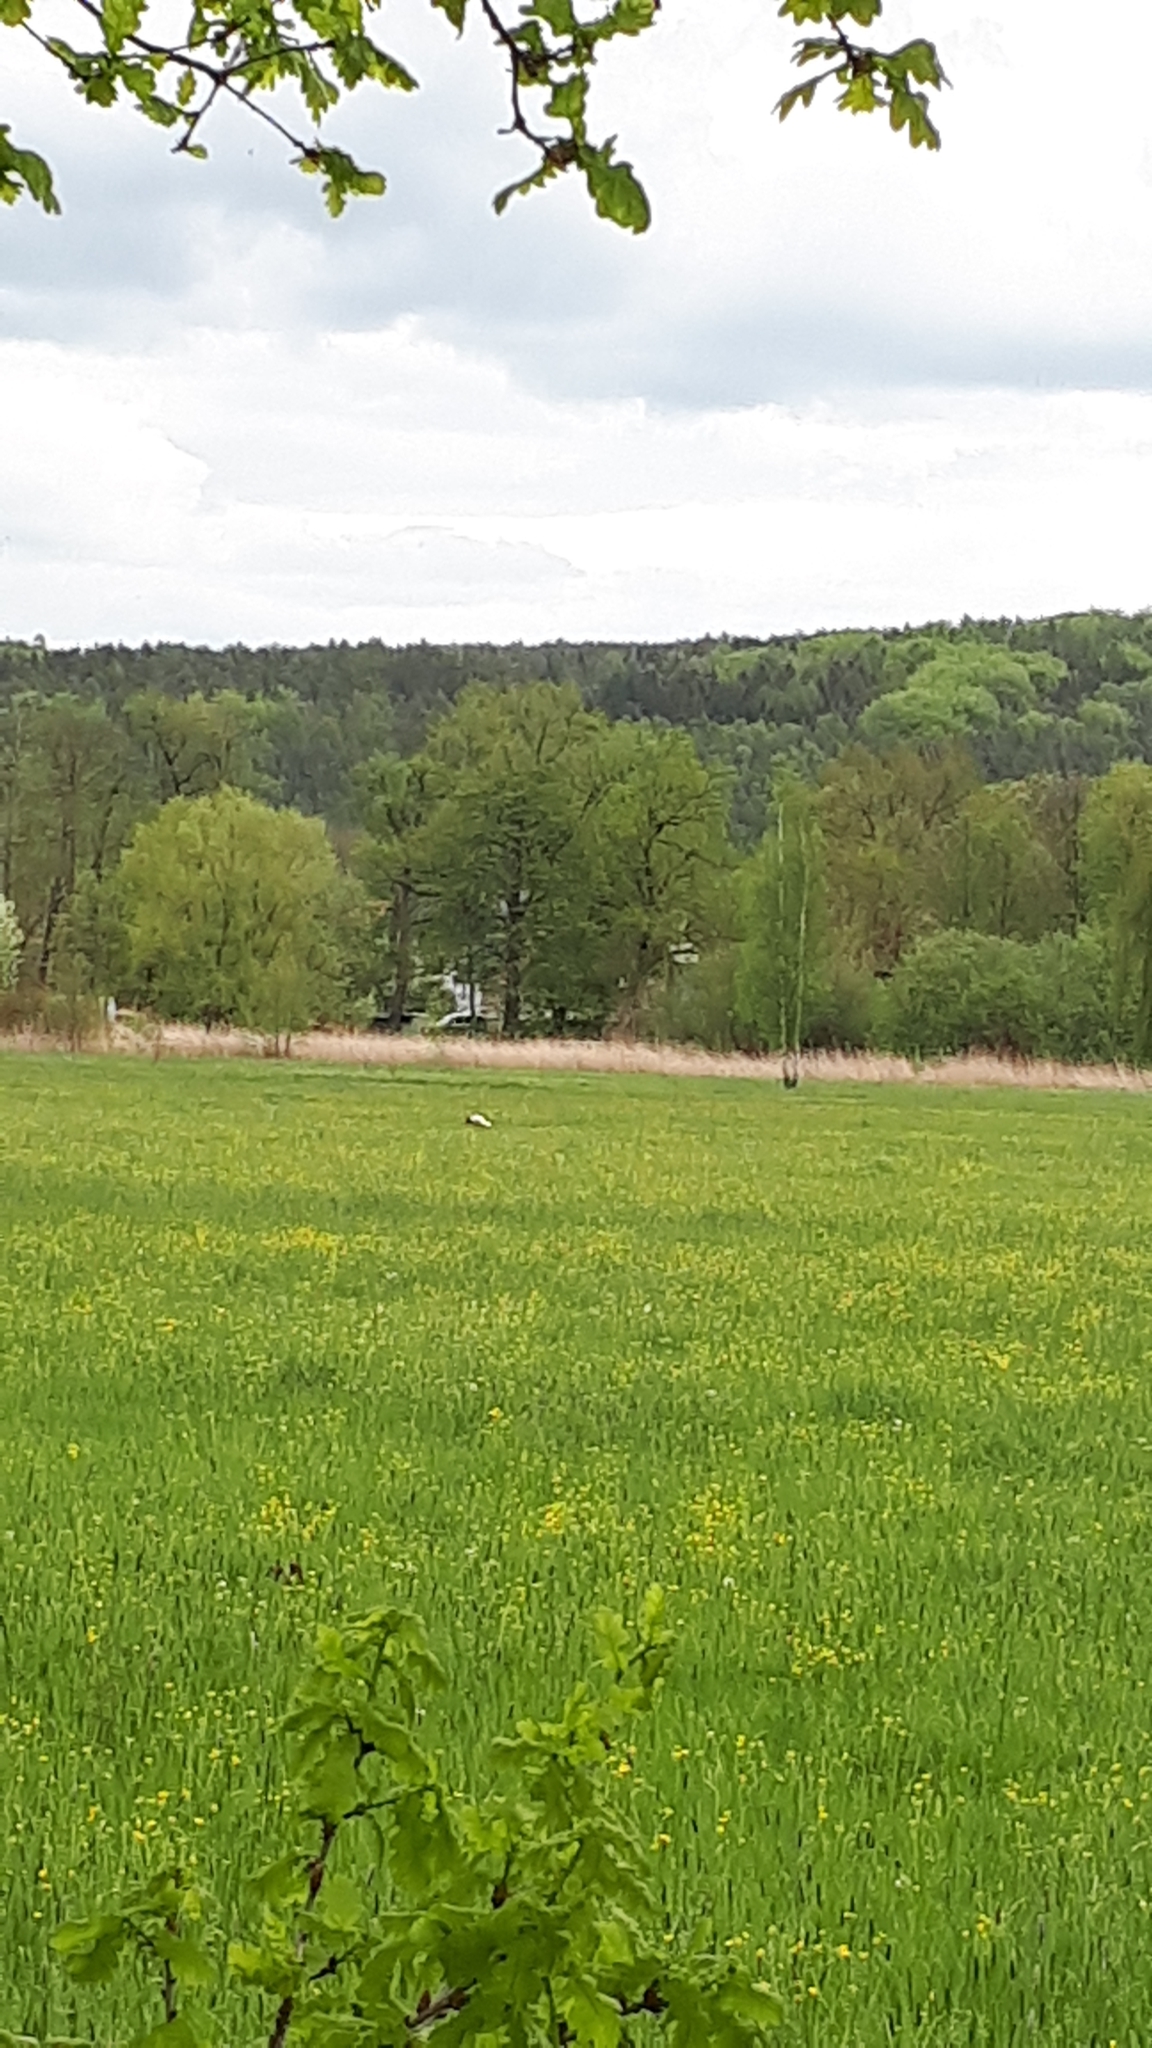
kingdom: Animalia
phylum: Chordata
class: Aves
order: Ciconiiformes
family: Ciconiidae
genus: Ciconia
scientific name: Ciconia ciconia
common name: White stork
